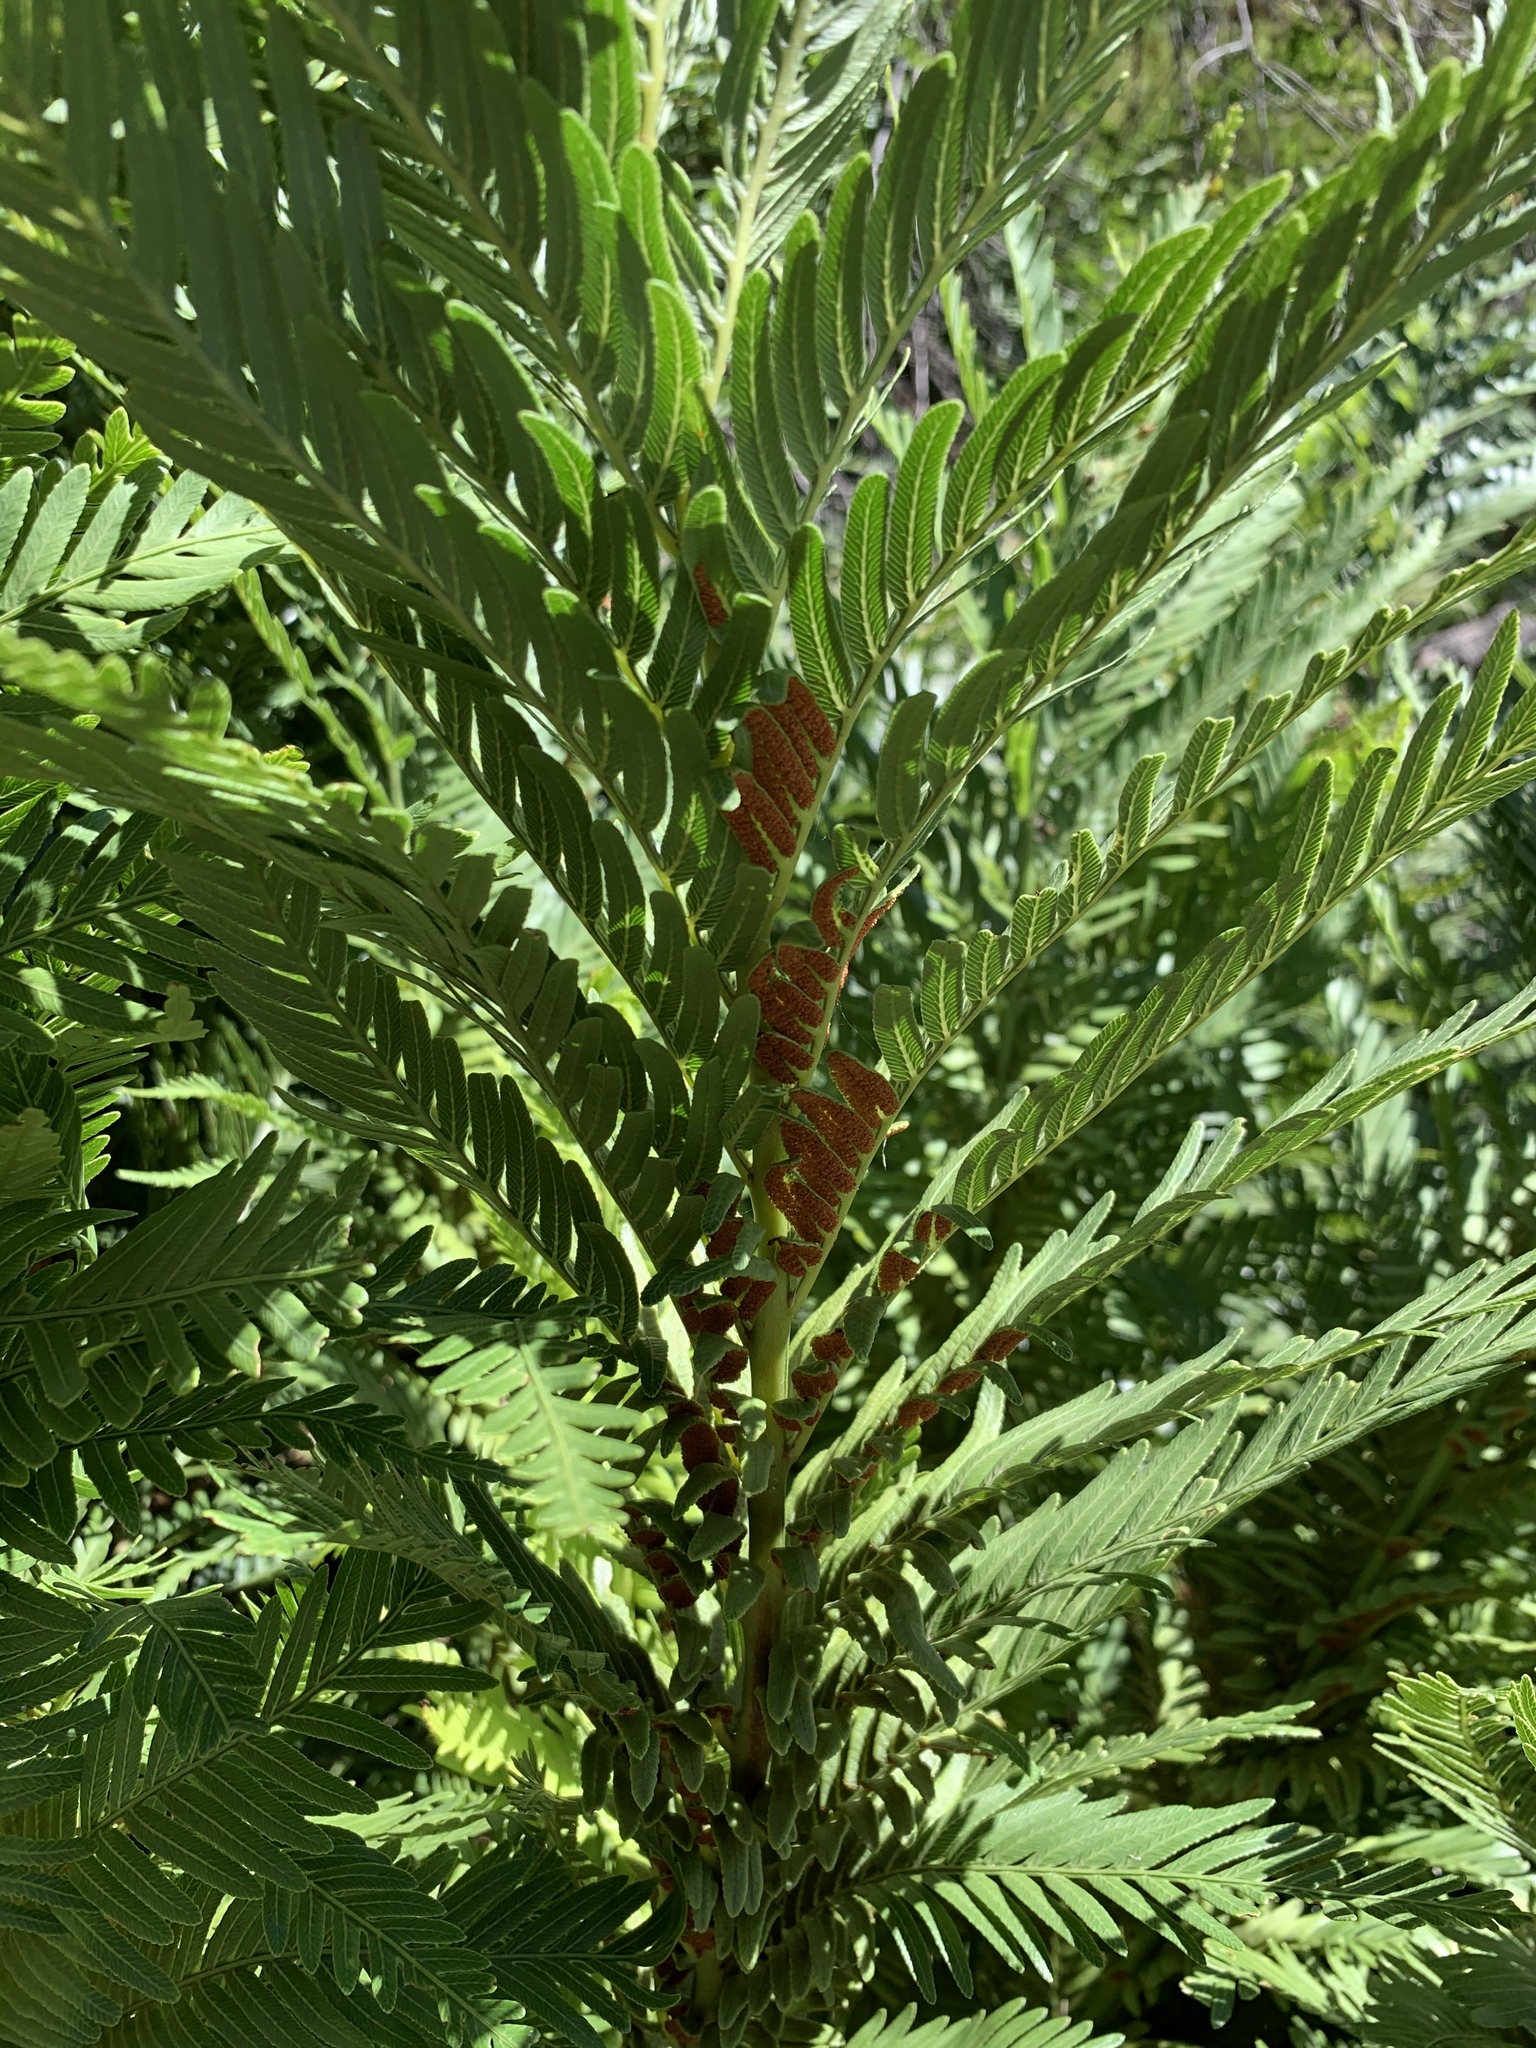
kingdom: Plantae
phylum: Tracheophyta
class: Polypodiopsida
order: Osmundales
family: Osmundaceae
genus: Todea
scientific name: Todea barbara
